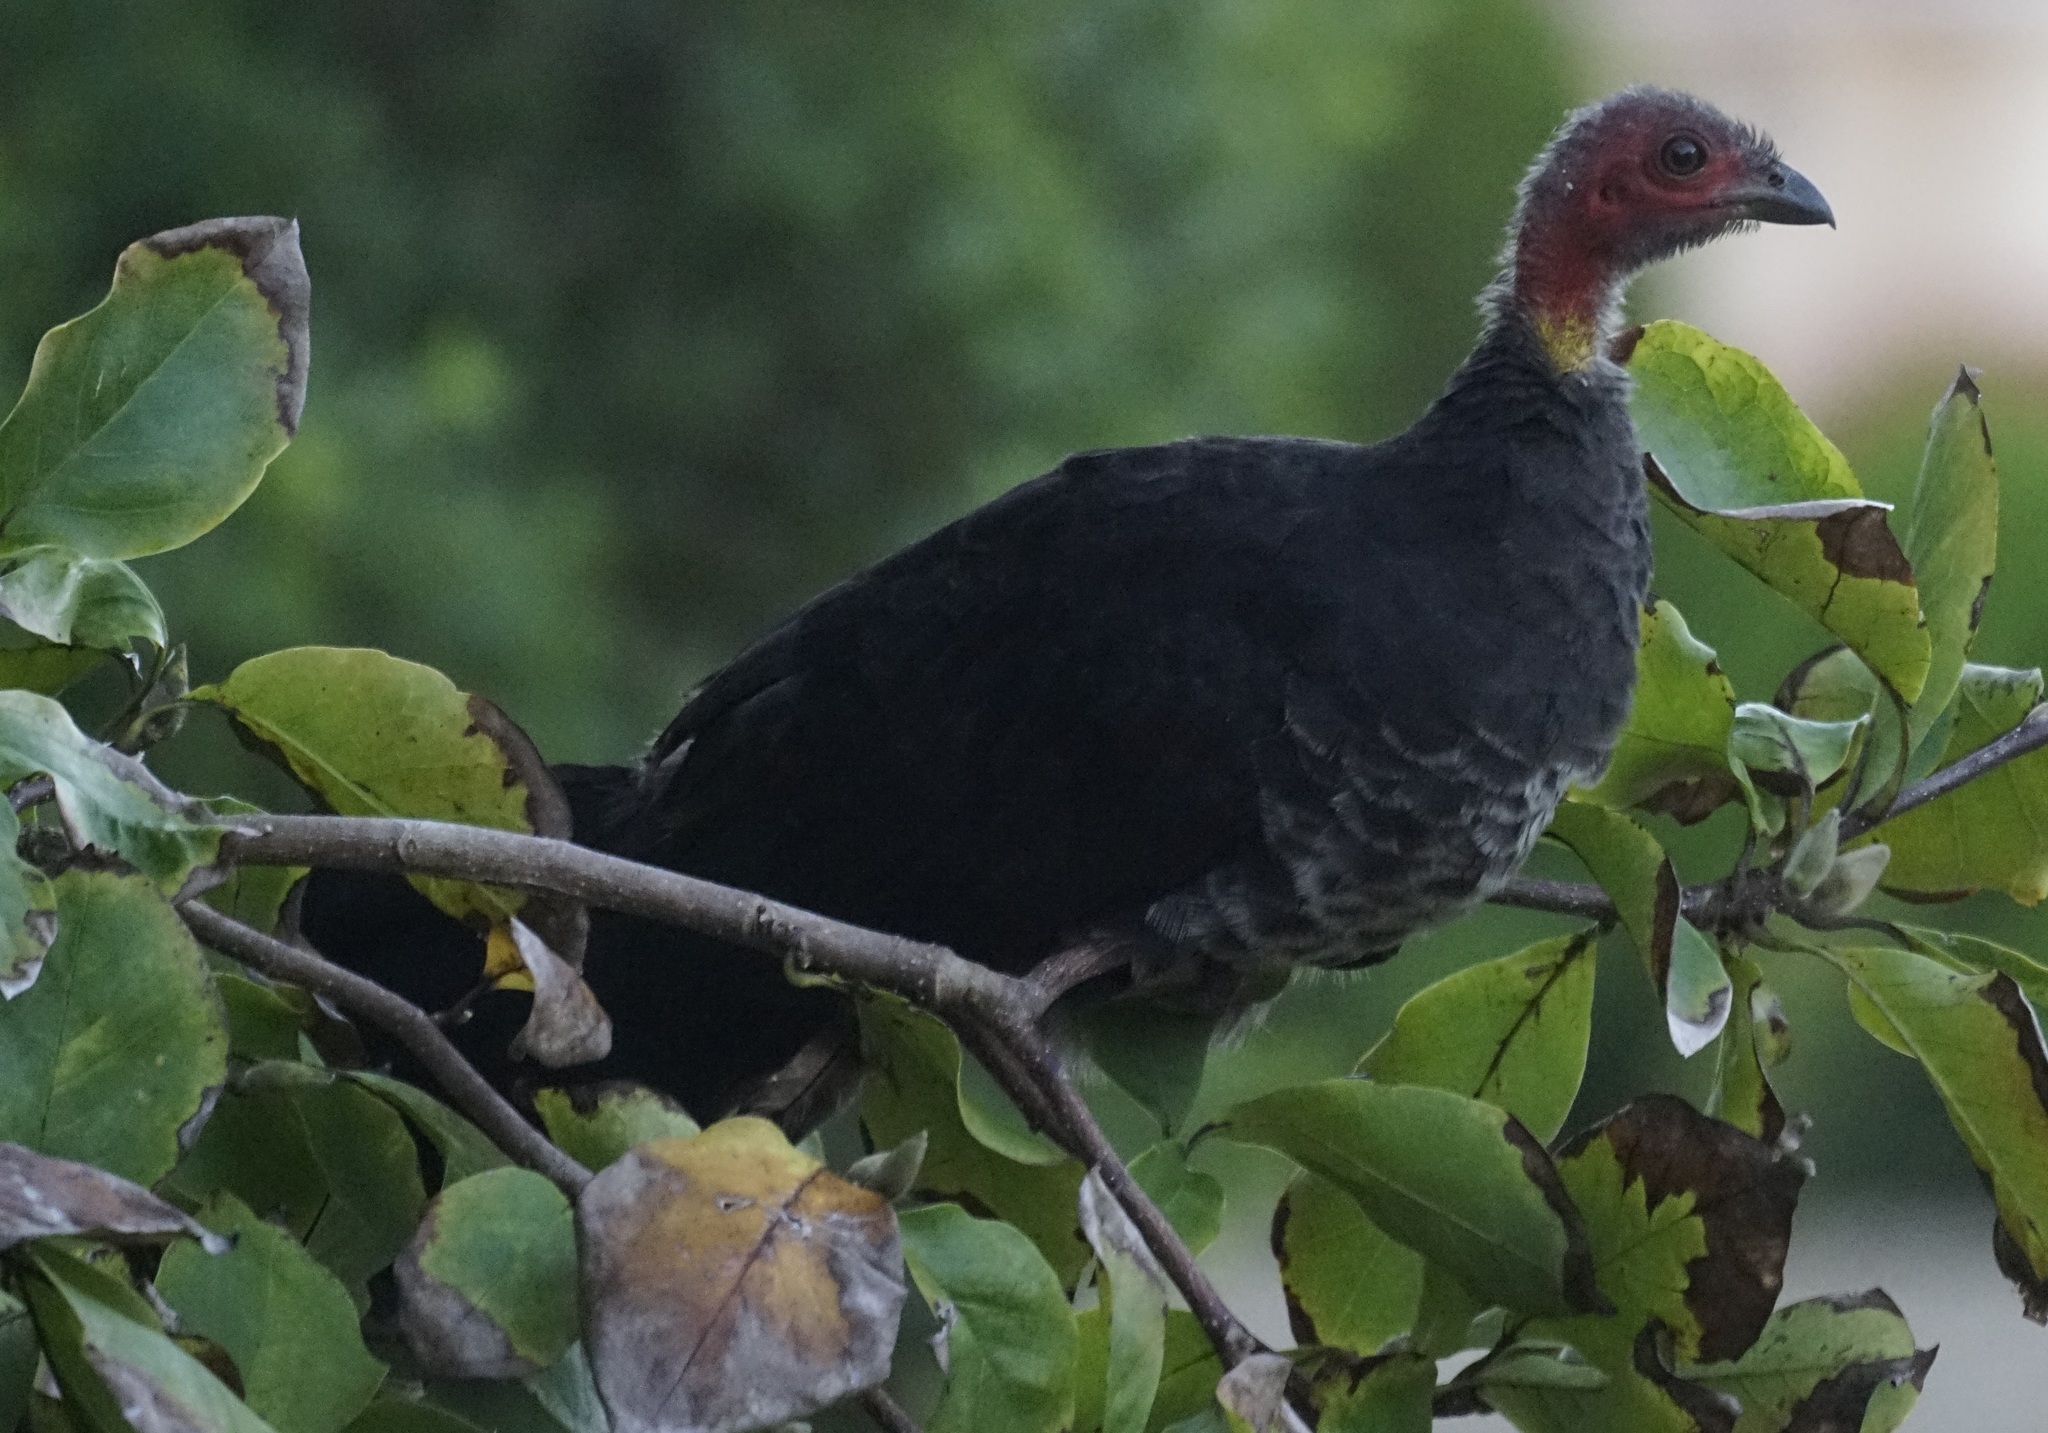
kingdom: Animalia
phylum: Chordata
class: Aves
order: Galliformes
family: Megapodiidae
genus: Alectura
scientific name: Alectura lathami
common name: Australian brushturkey
